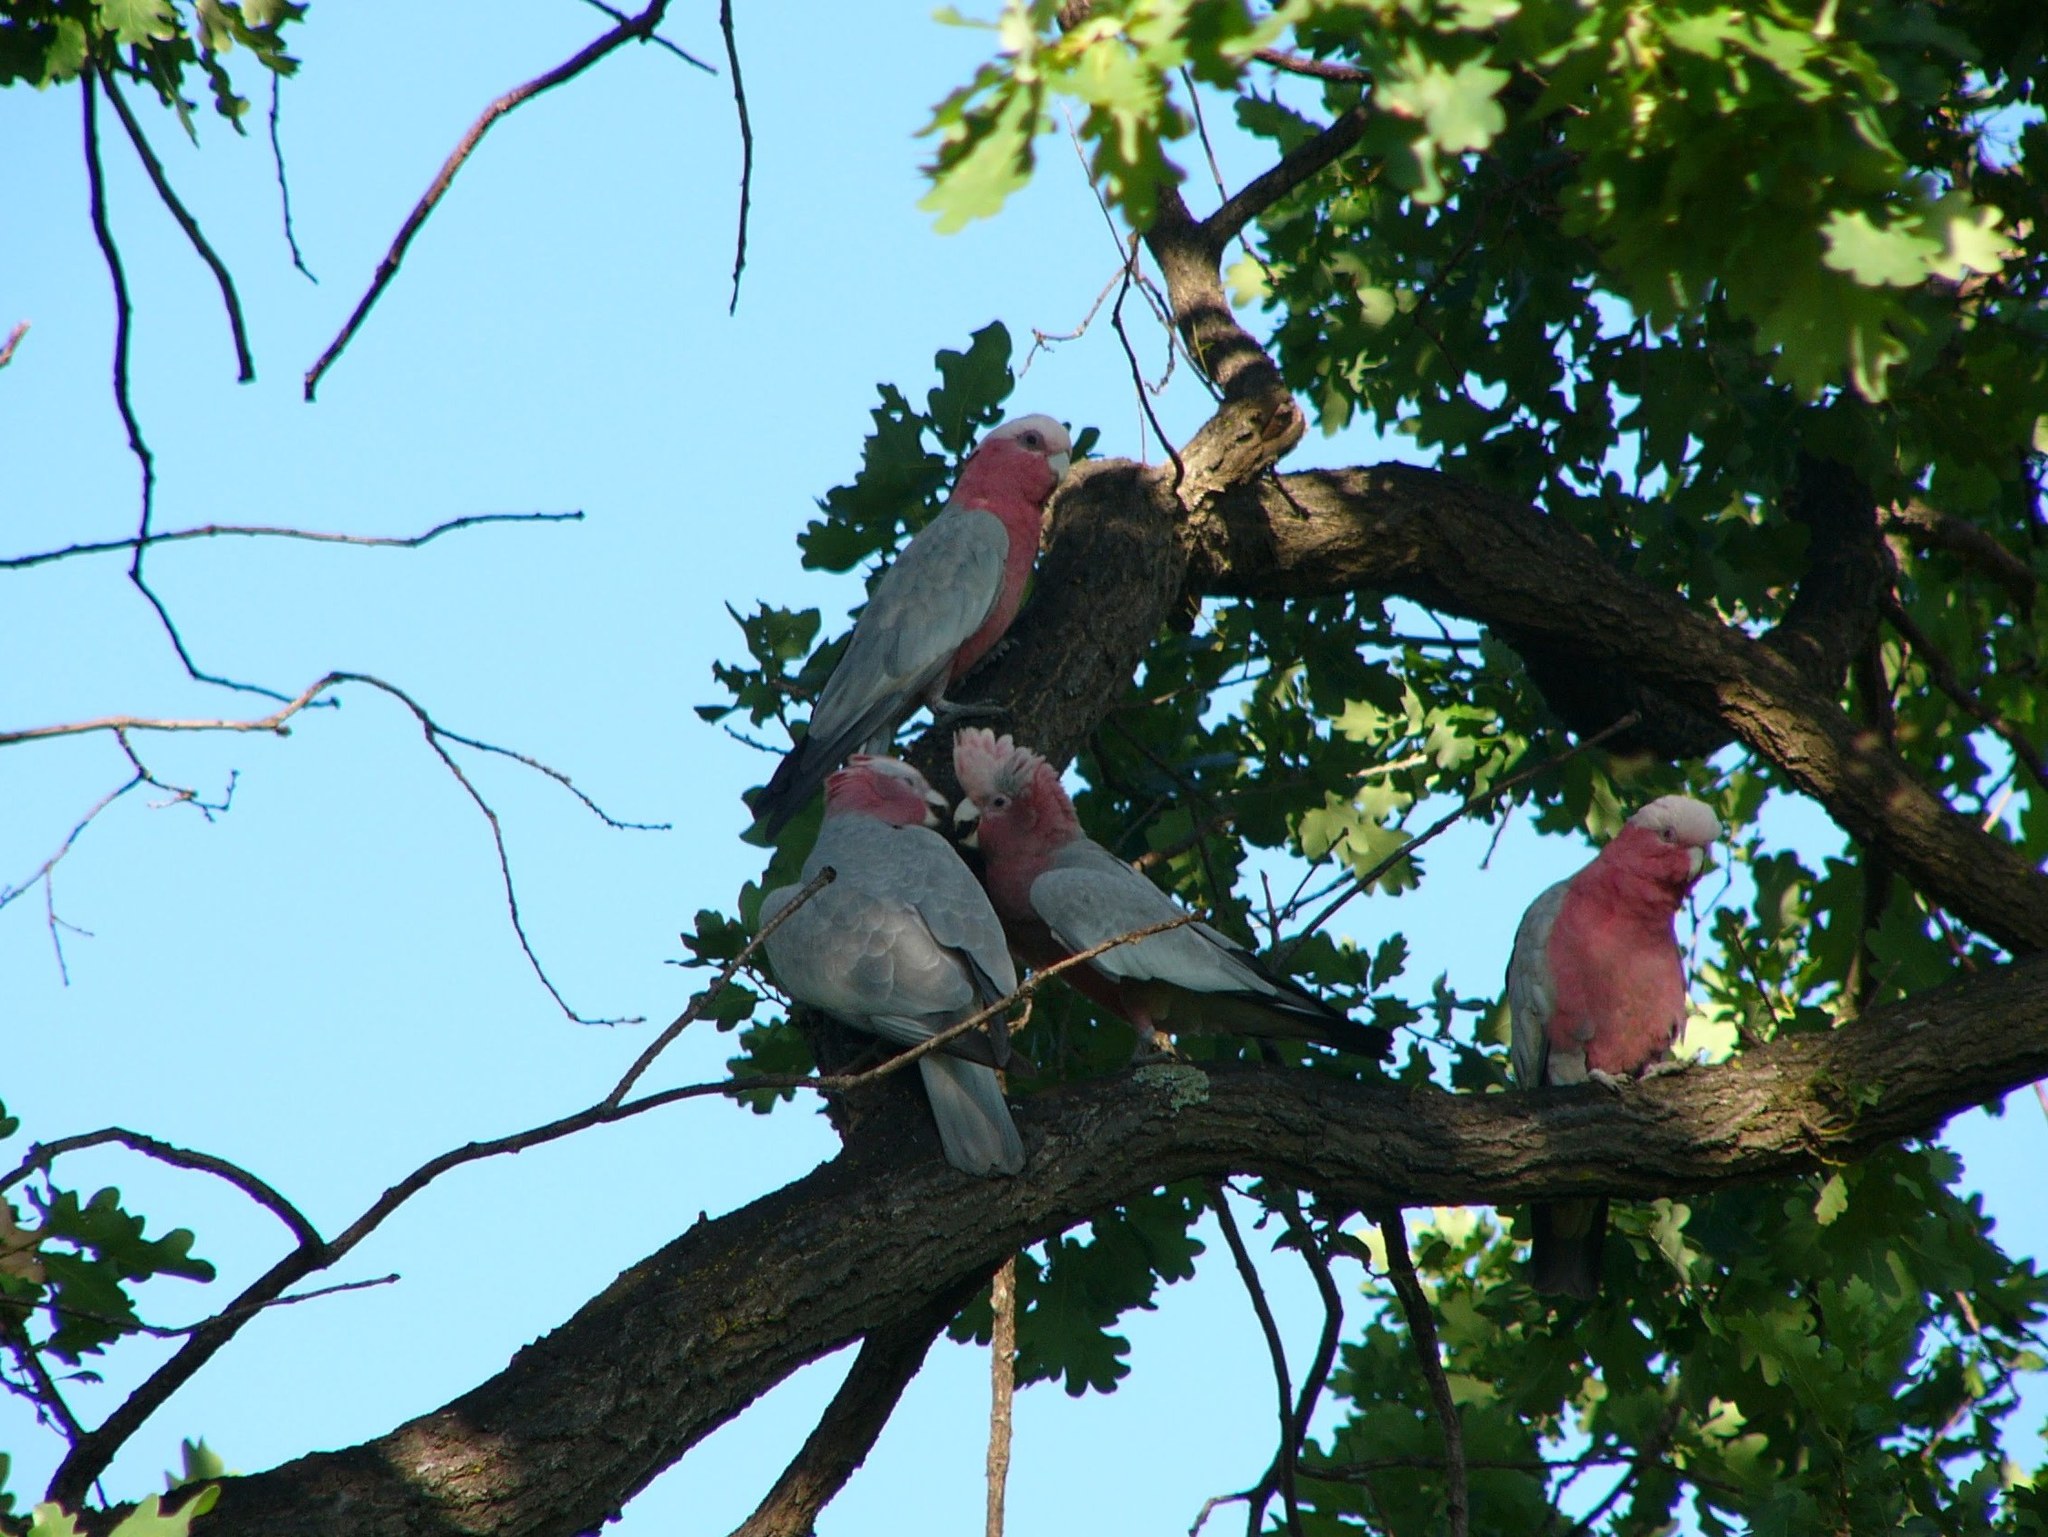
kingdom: Animalia
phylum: Chordata
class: Aves
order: Psittaciformes
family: Psittacidae
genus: Eolophus
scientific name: Eolophus roseicapilla
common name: Galah
